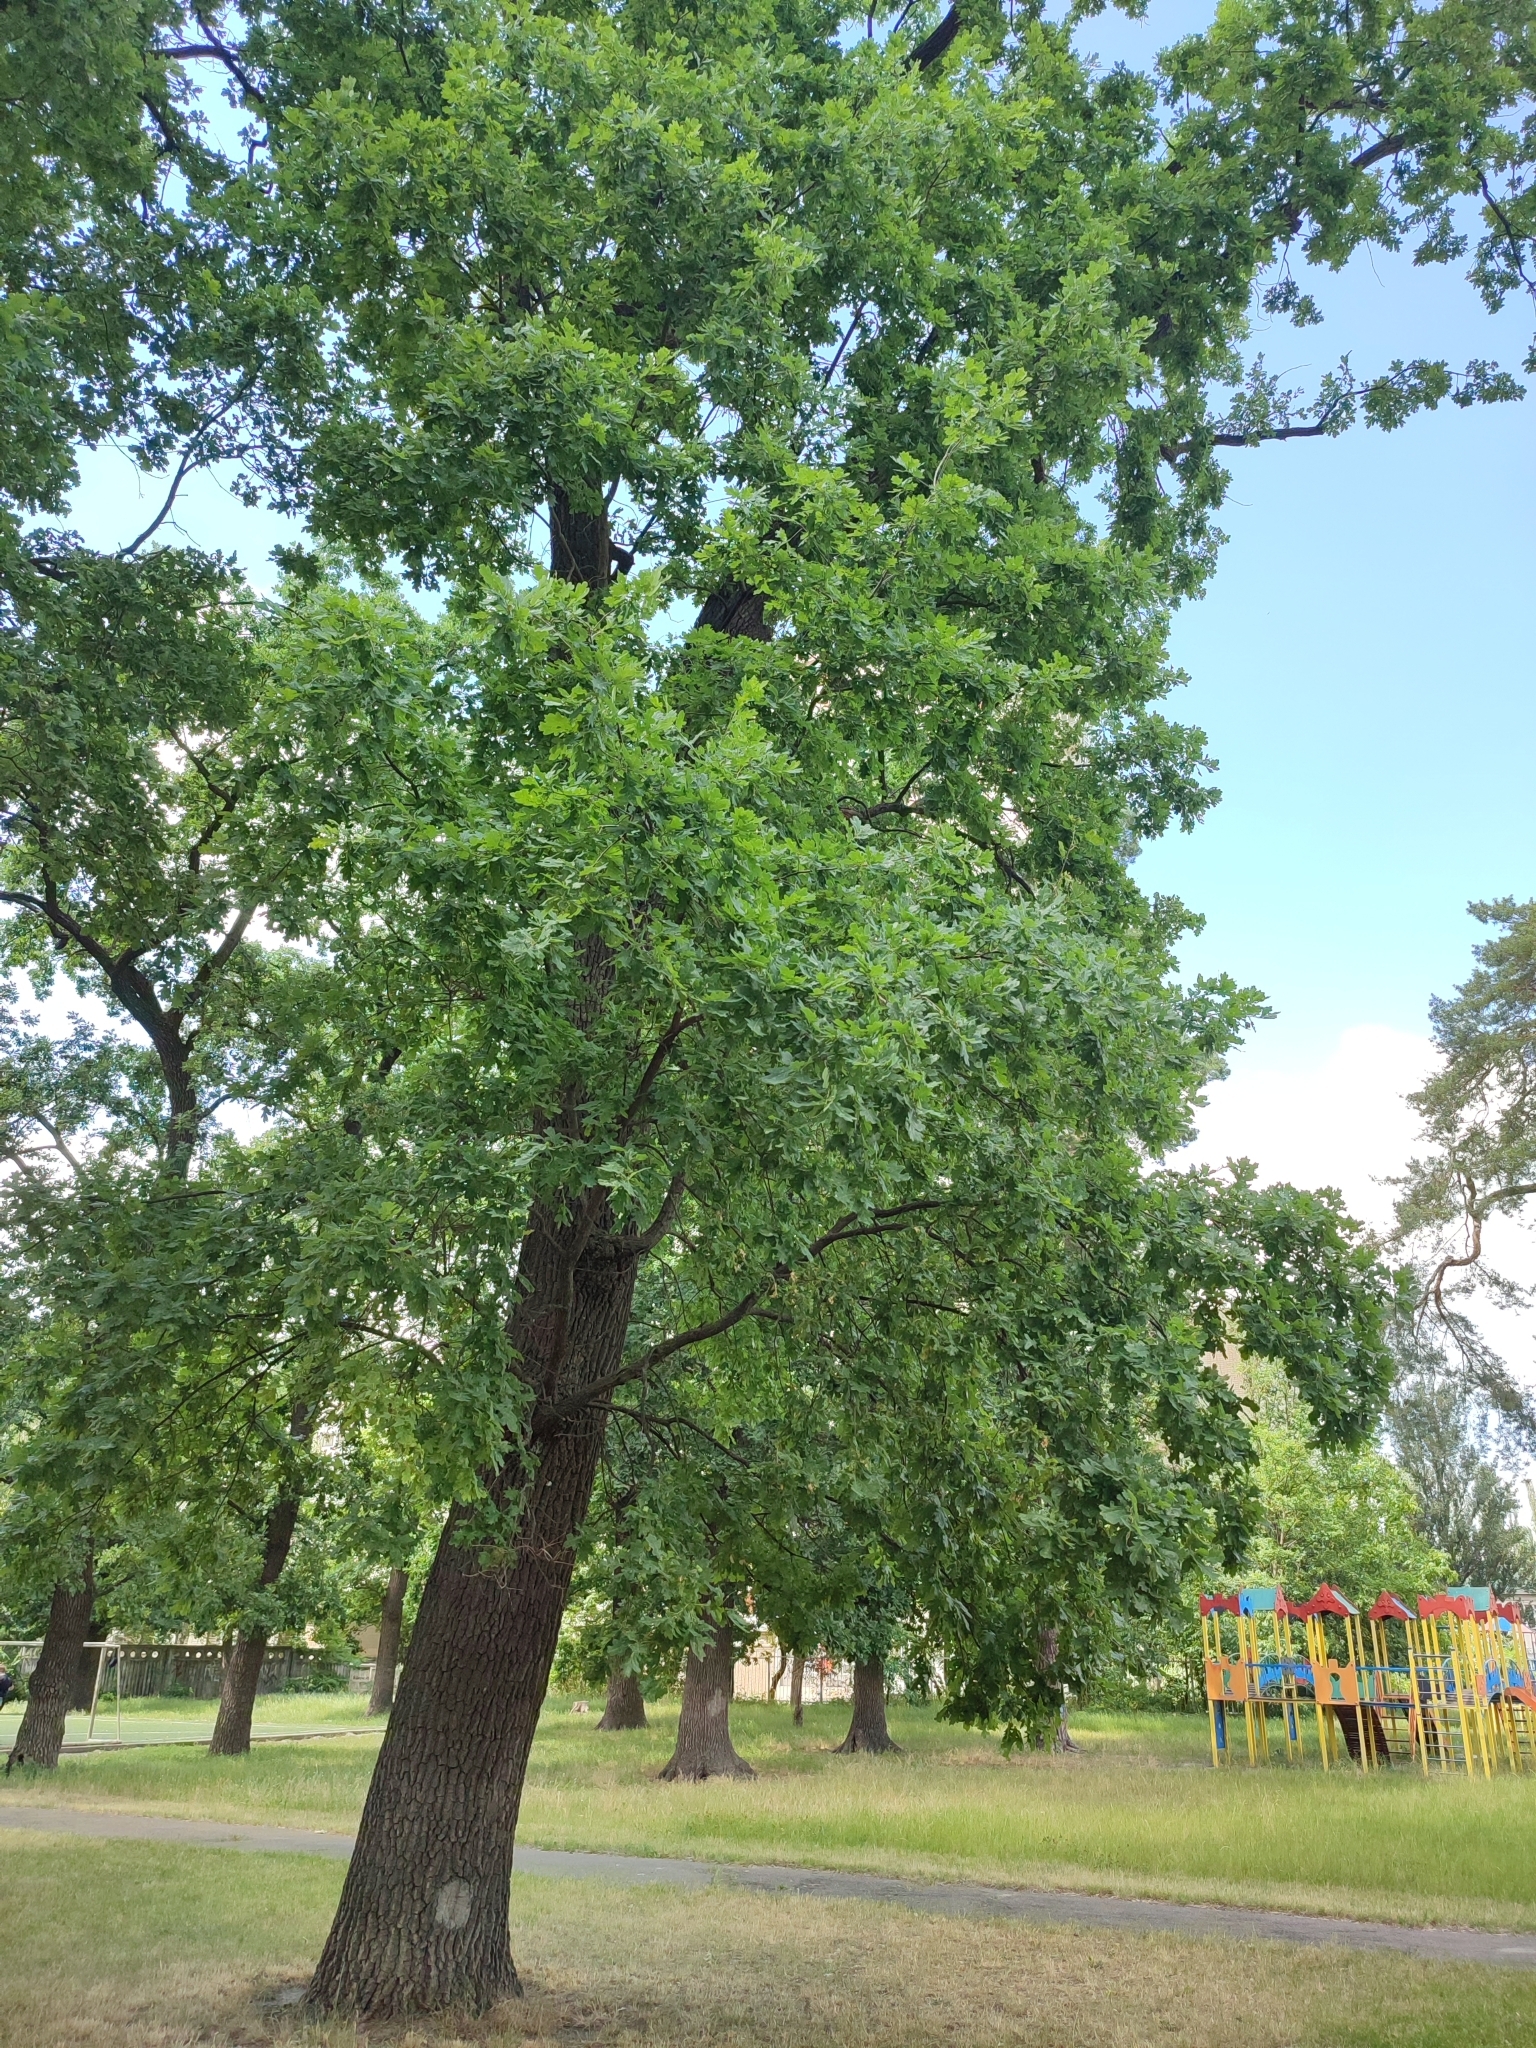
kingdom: Plantae
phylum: Tracheophyta
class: Magnoliopsida
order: Fagales
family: Fagaceae
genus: Quercus
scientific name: Quercus robur
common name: Pedunculate oak
